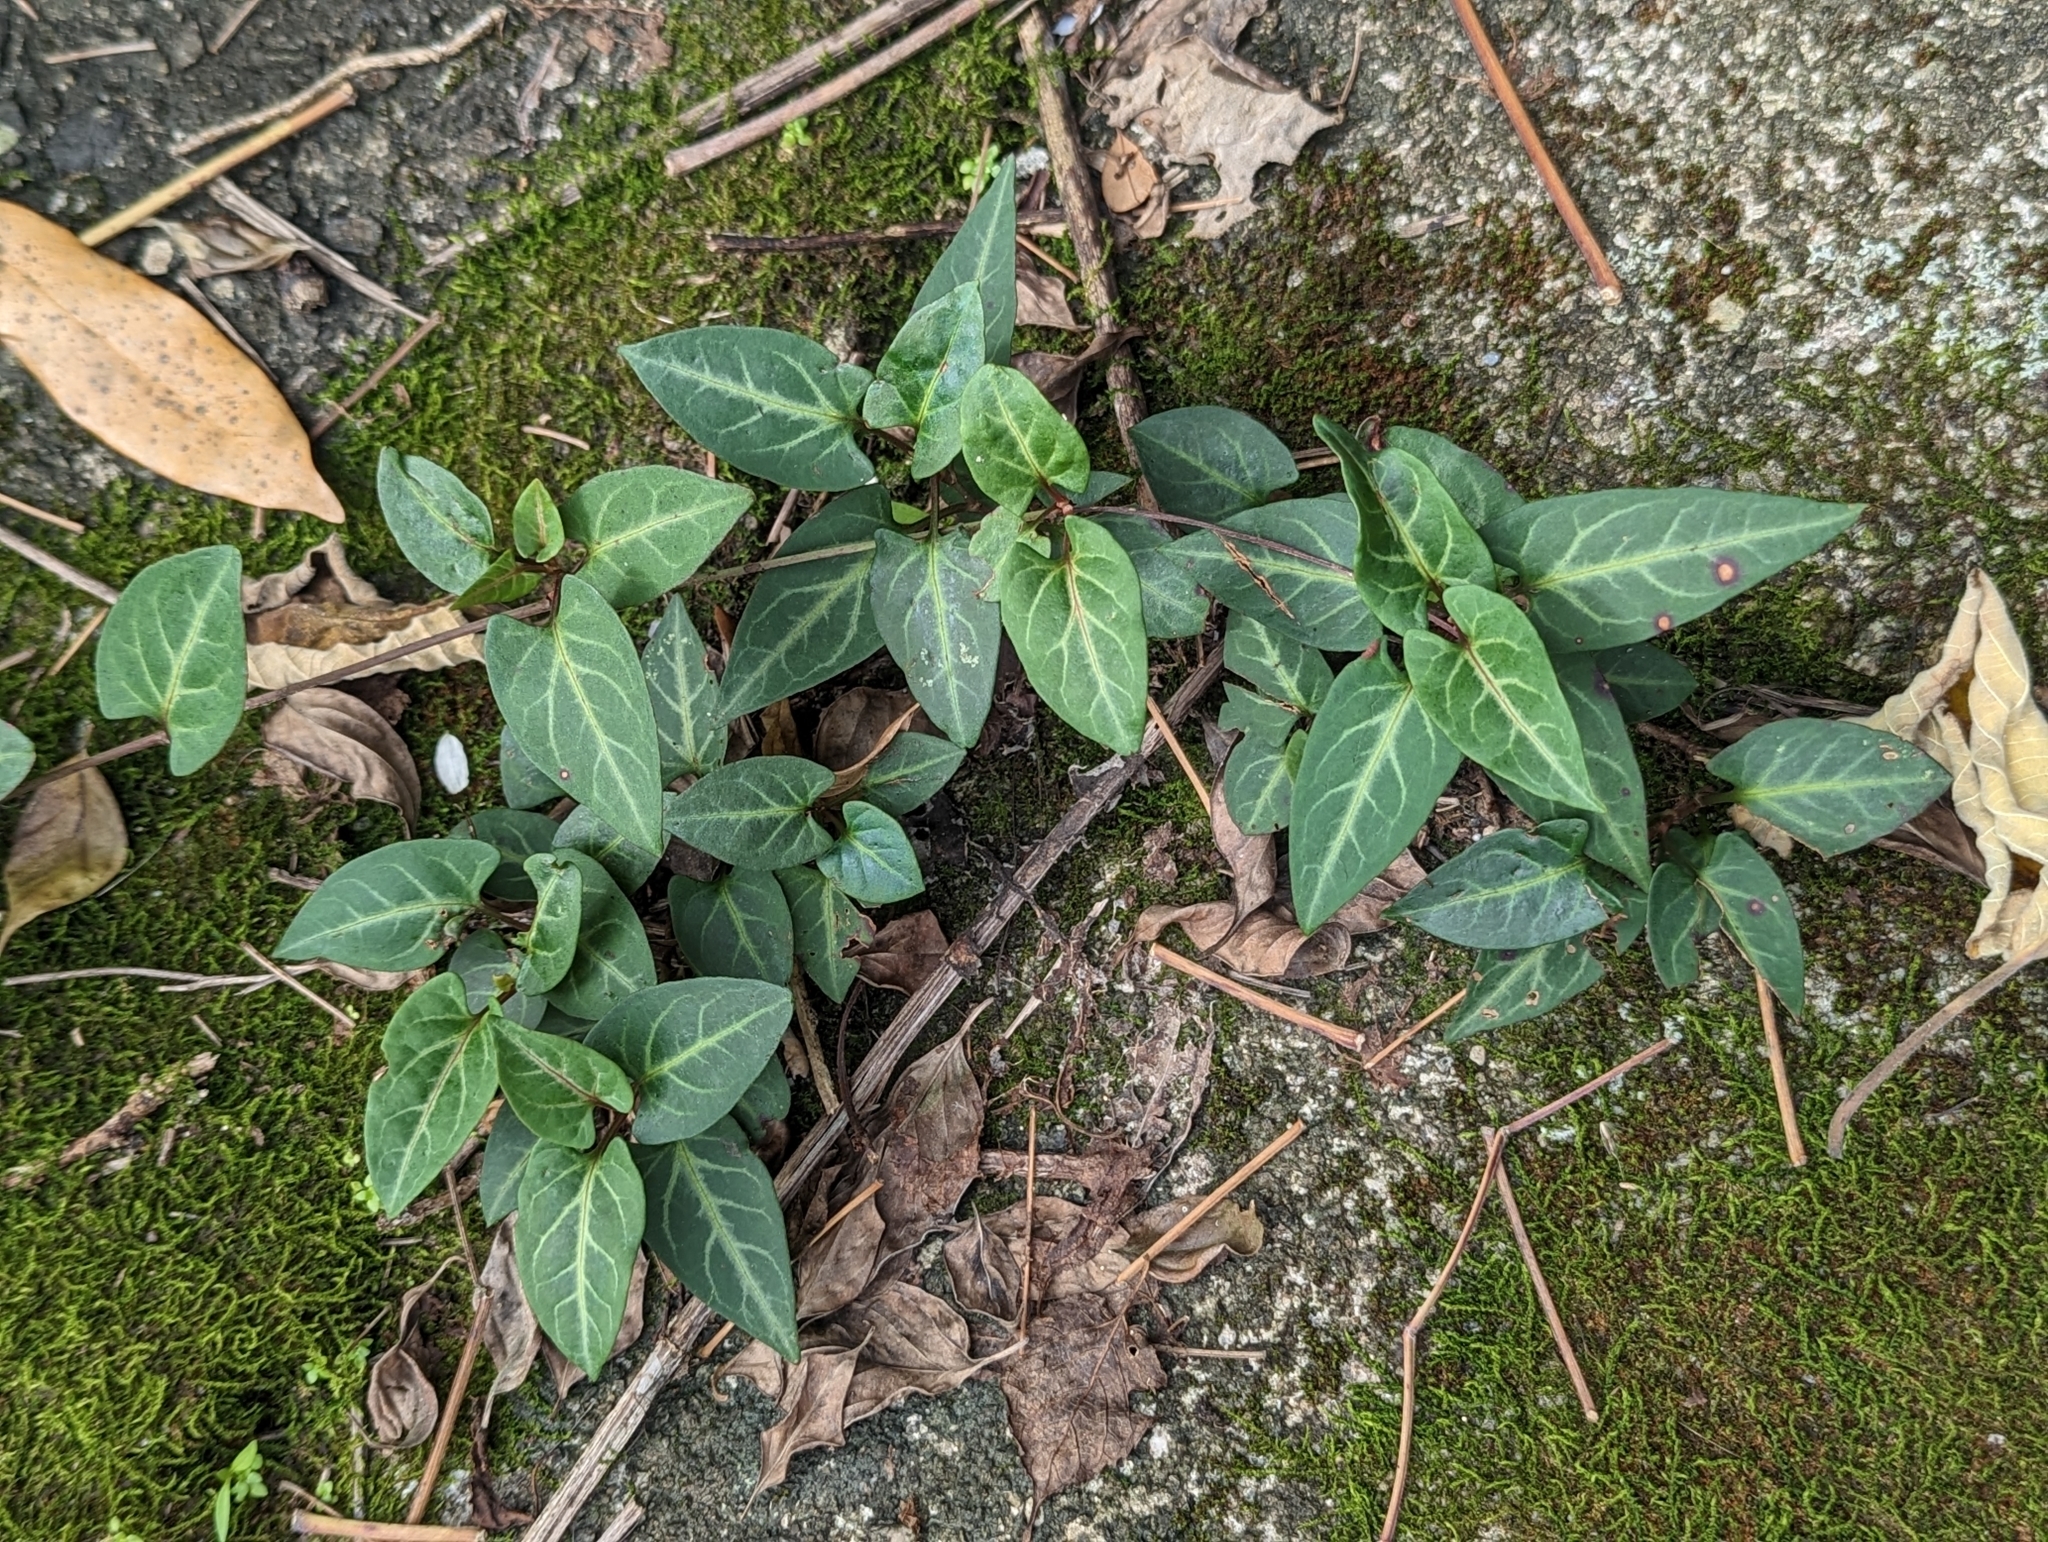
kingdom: Plantae
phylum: Tracheophyta
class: Magnoliopsida
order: Caryophyllales
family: Polygonaceae
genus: Reynoutria
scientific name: Reynoutria multiflora
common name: Chinese fleeceflower
